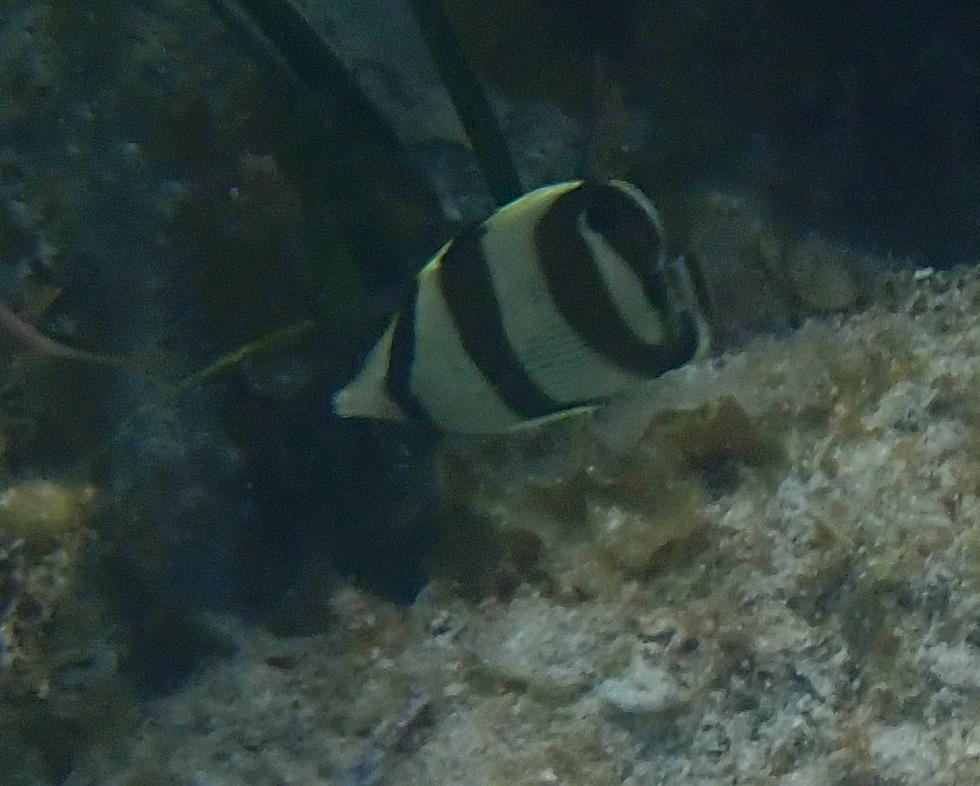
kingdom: Animalia
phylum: Chordata
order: Perciformes
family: Chaetodontidae
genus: Chaetodon
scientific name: Chaetodon striatus
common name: Banded butterflyfish
